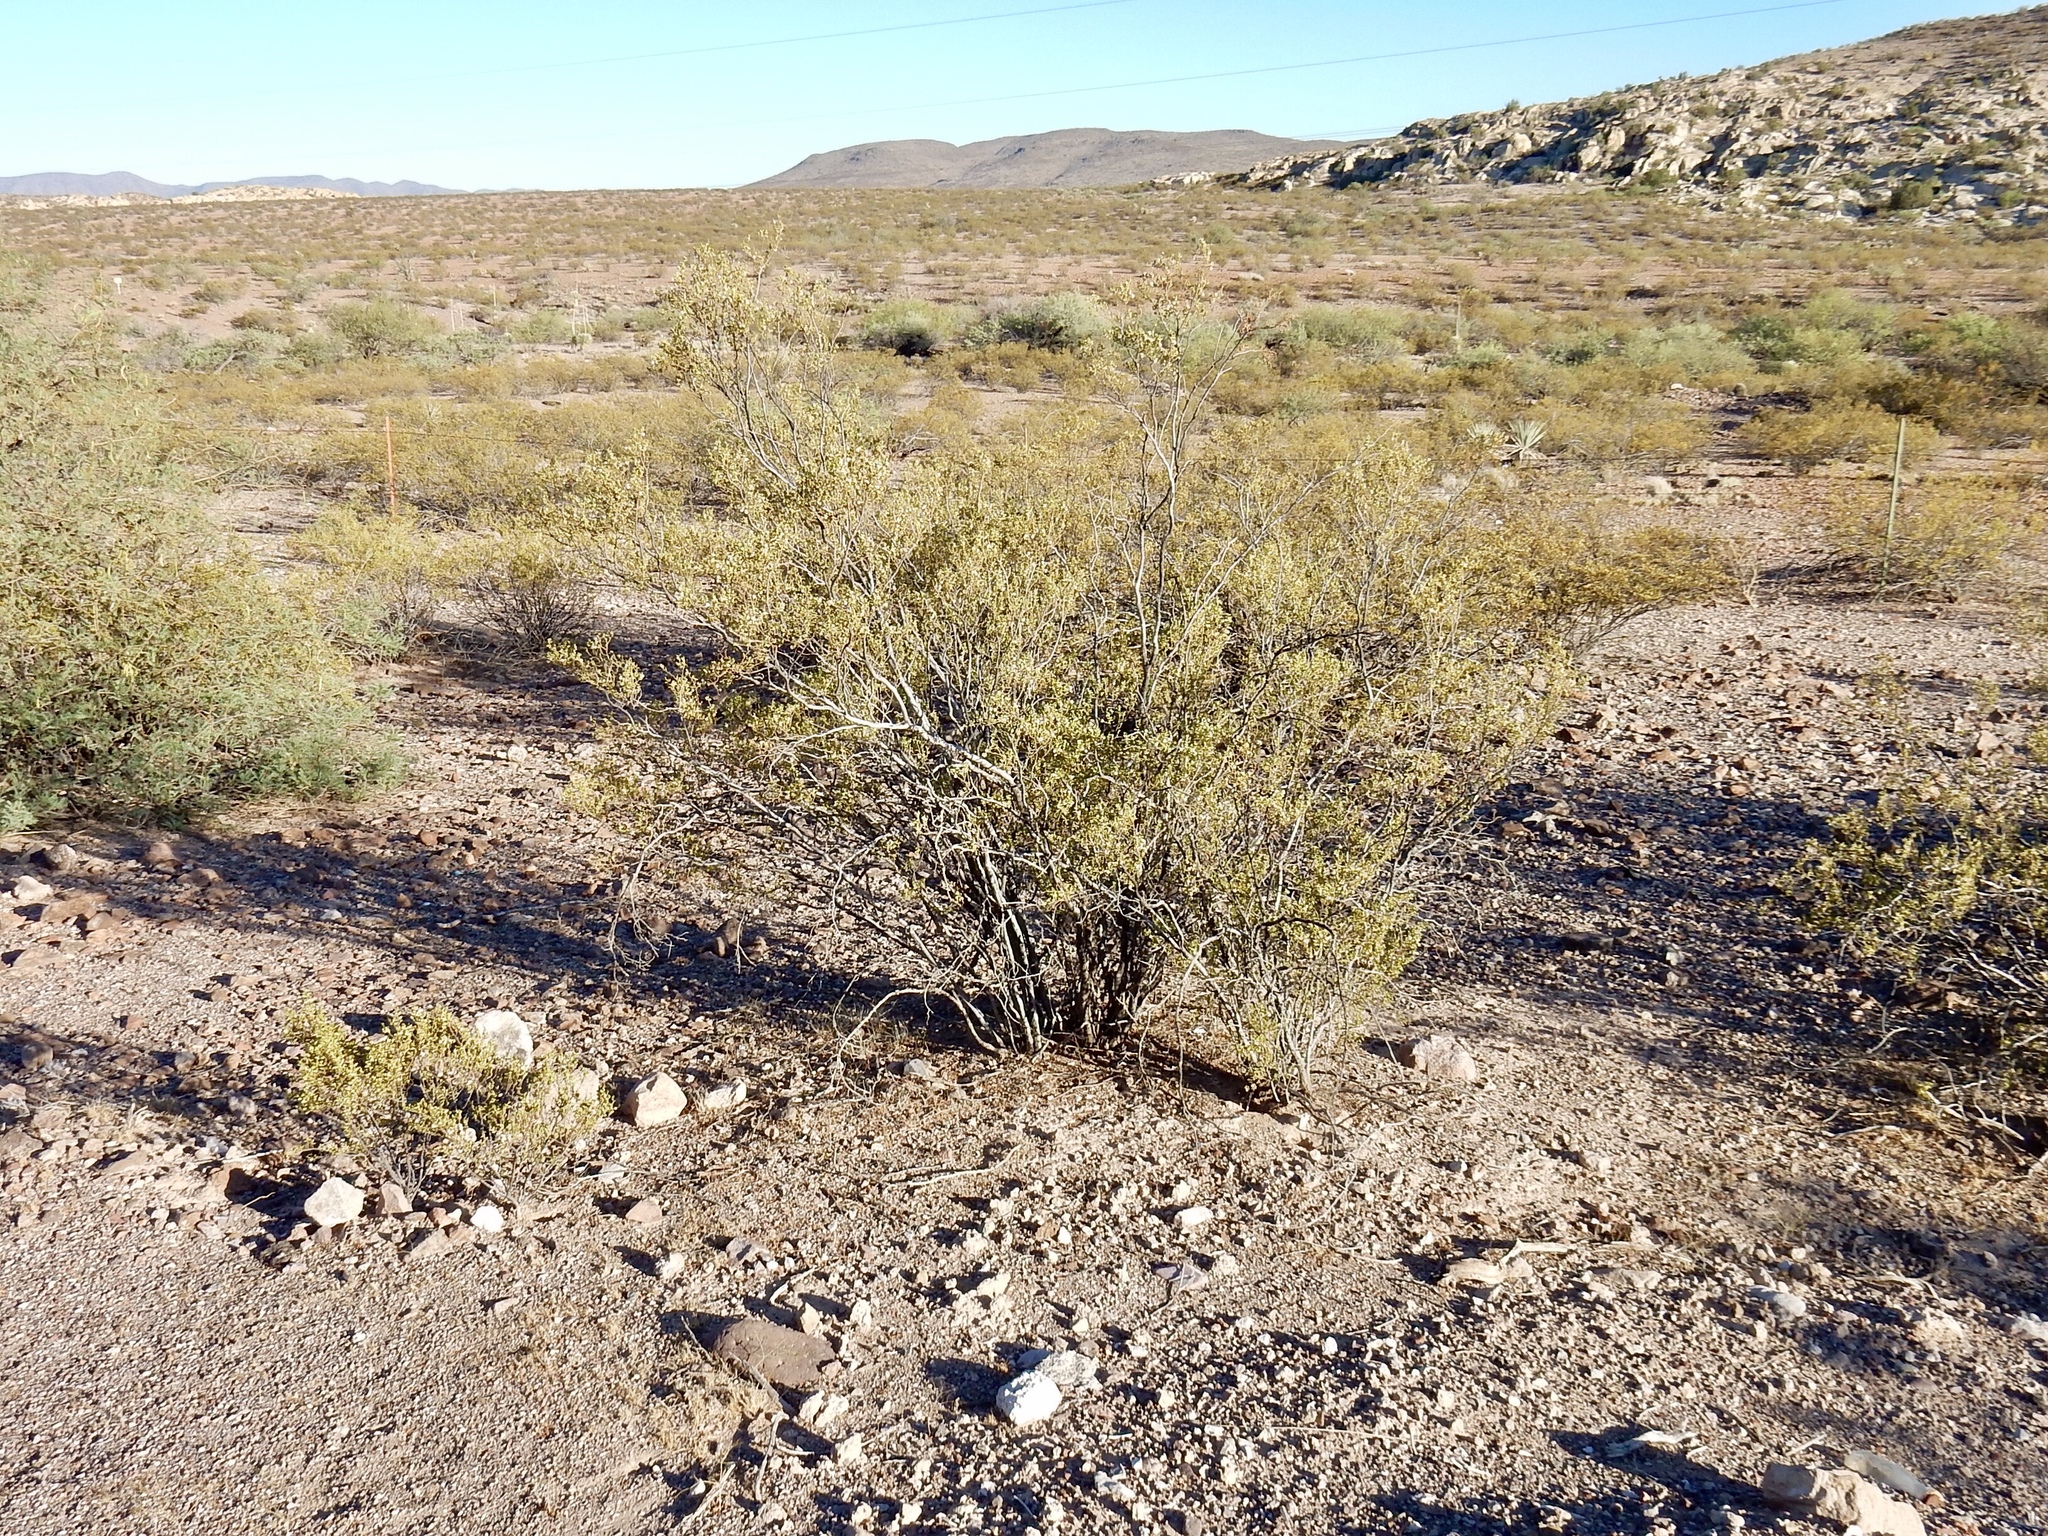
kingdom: Plantae
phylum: Tracheophyta
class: Magnoliopsida
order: Zygophyllales
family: Zygophyllaceae
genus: Larrea
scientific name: Larrea tridentata
